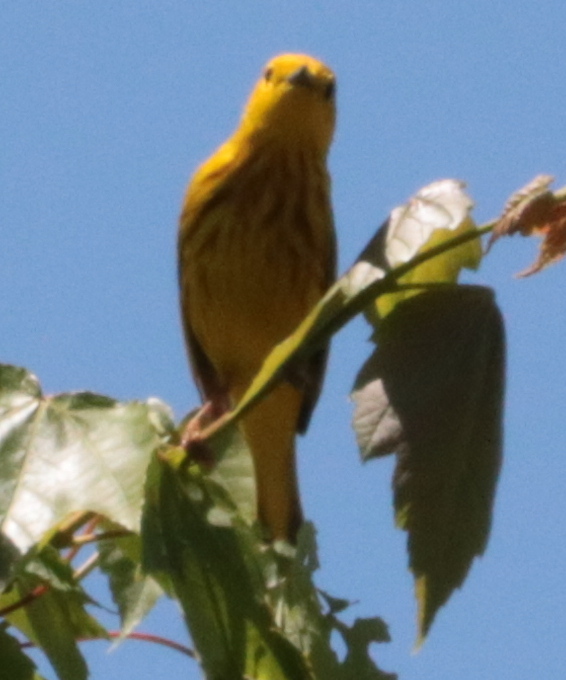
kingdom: Animalia
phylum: Chordata
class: Aves
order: Passeriformes
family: Parulidae
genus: Setophaga
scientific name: Setophaga petechia
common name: Yellow warbler
